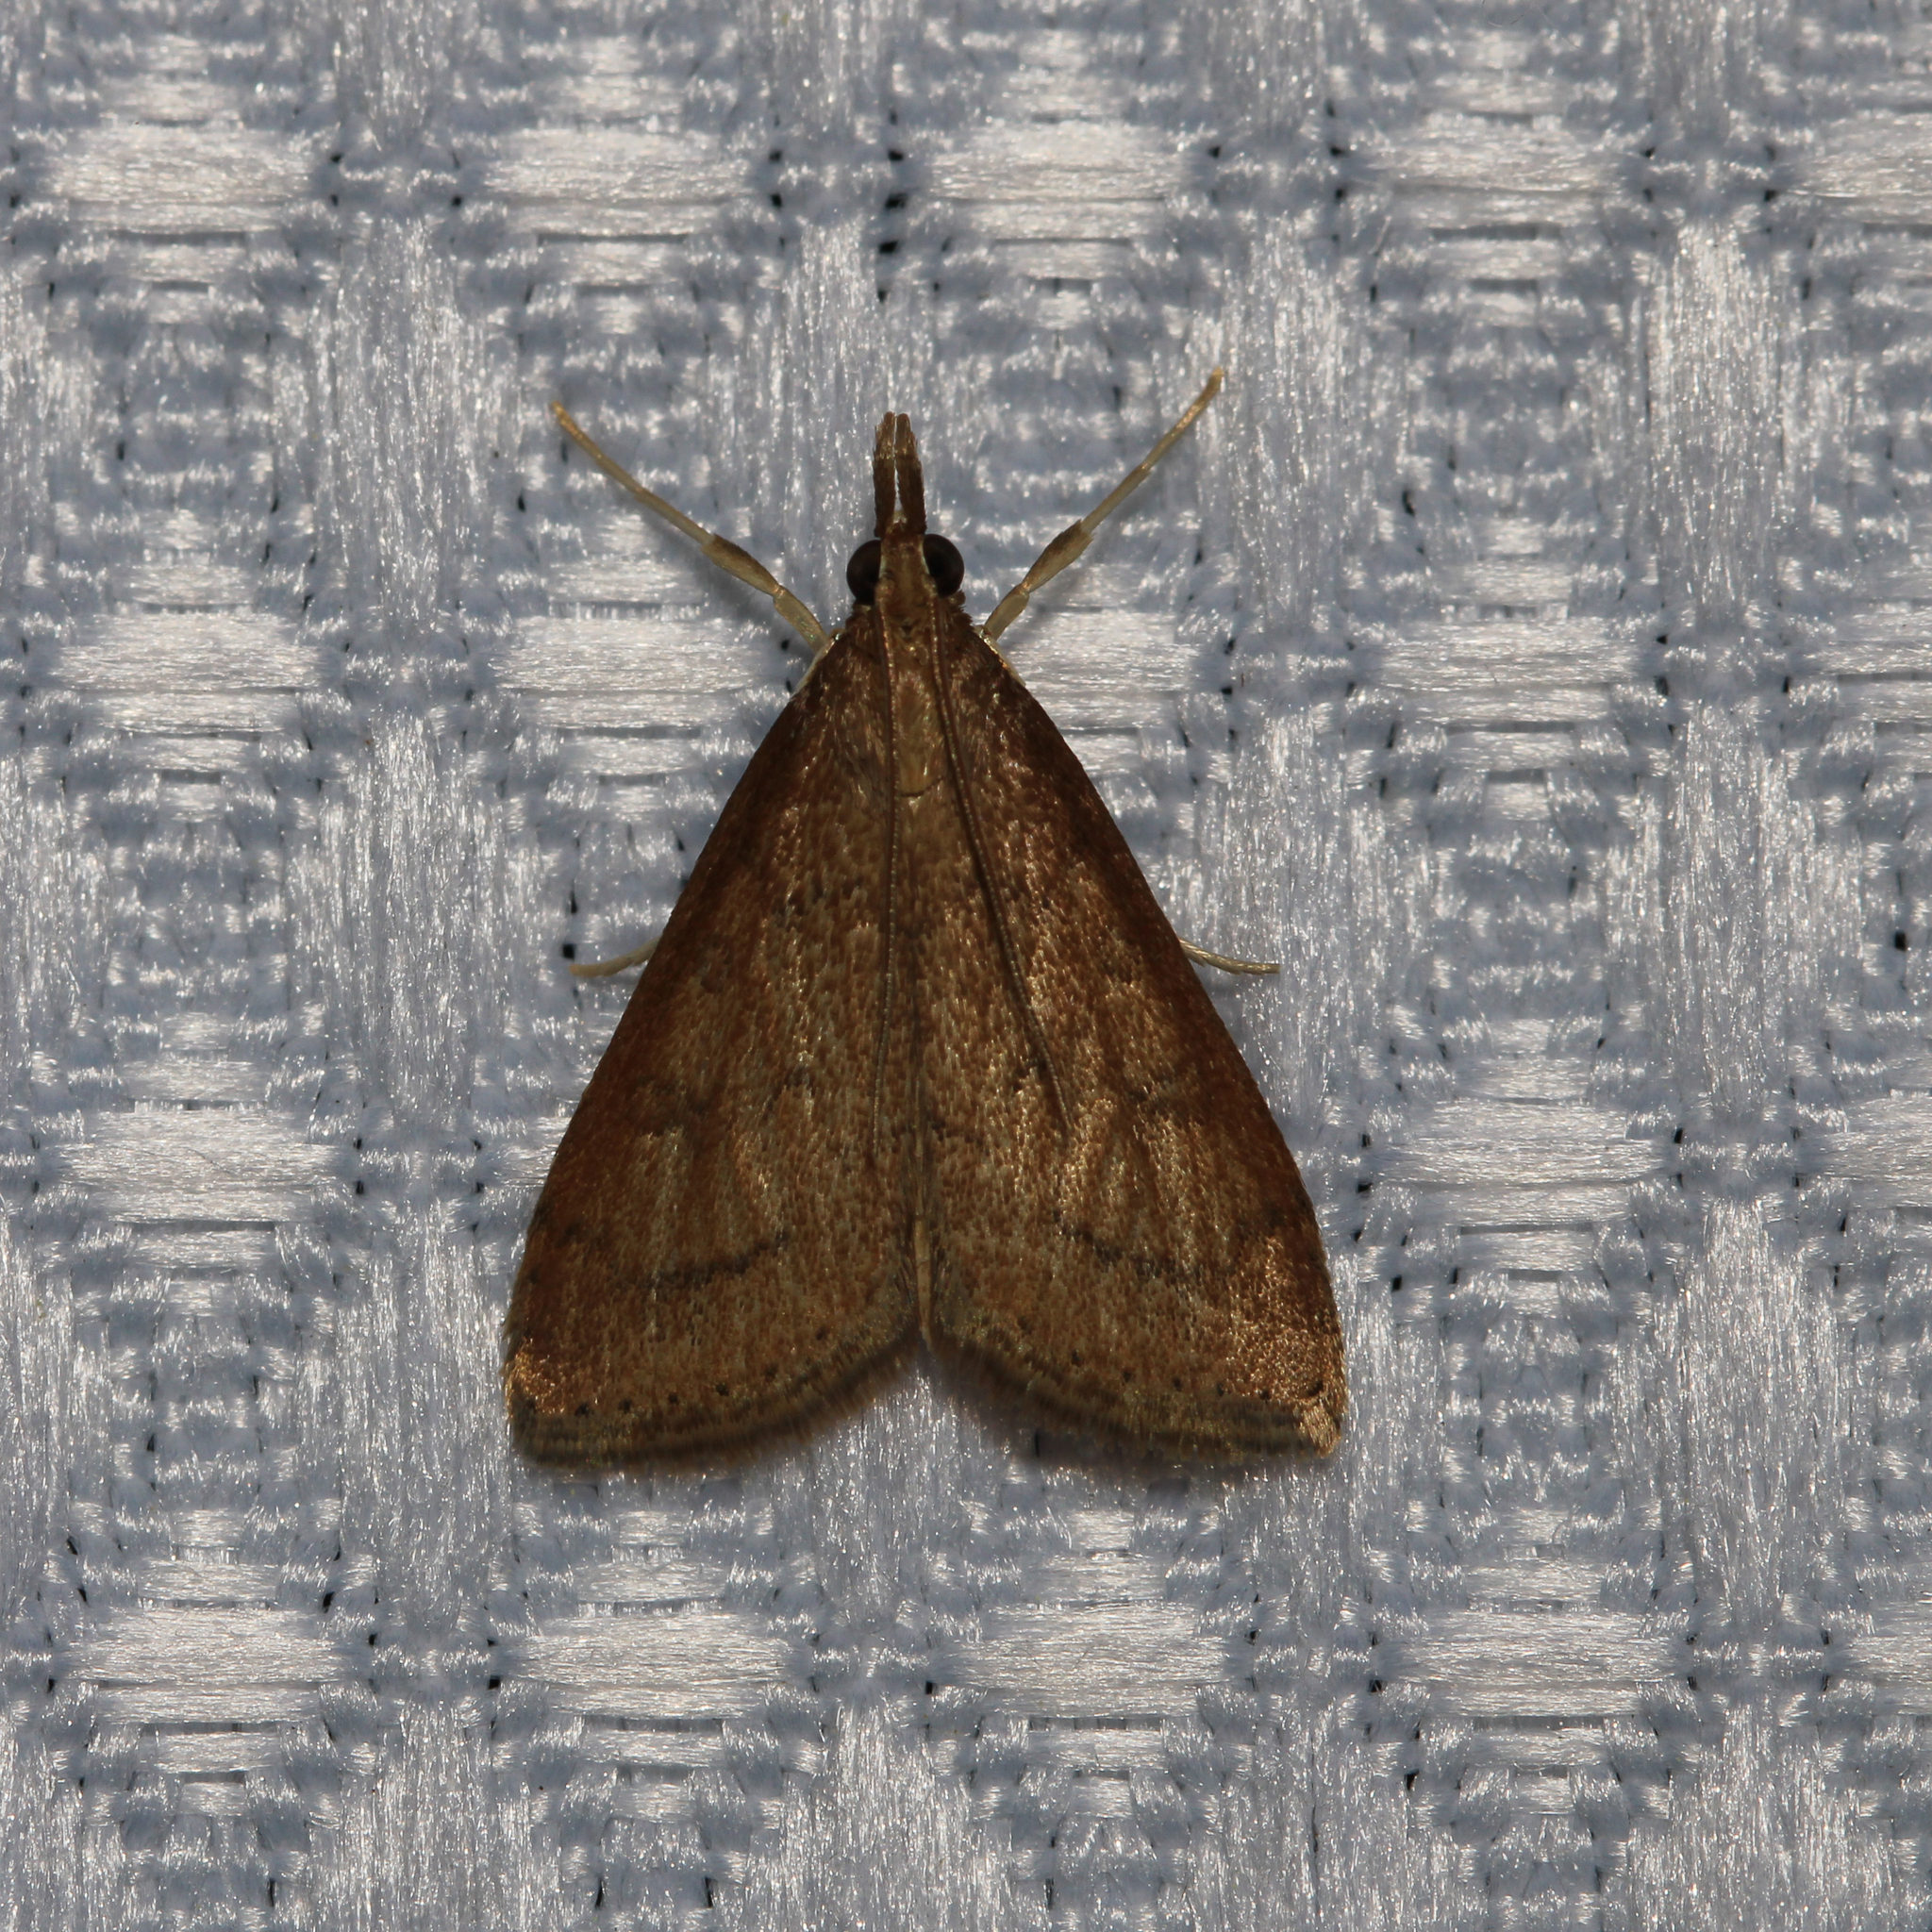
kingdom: Animalia
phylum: Arthropoda
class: Insecta
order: Lepidoptera
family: Crambidae
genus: Udea
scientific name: Udea rubigalis
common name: Celery leaftier moth
